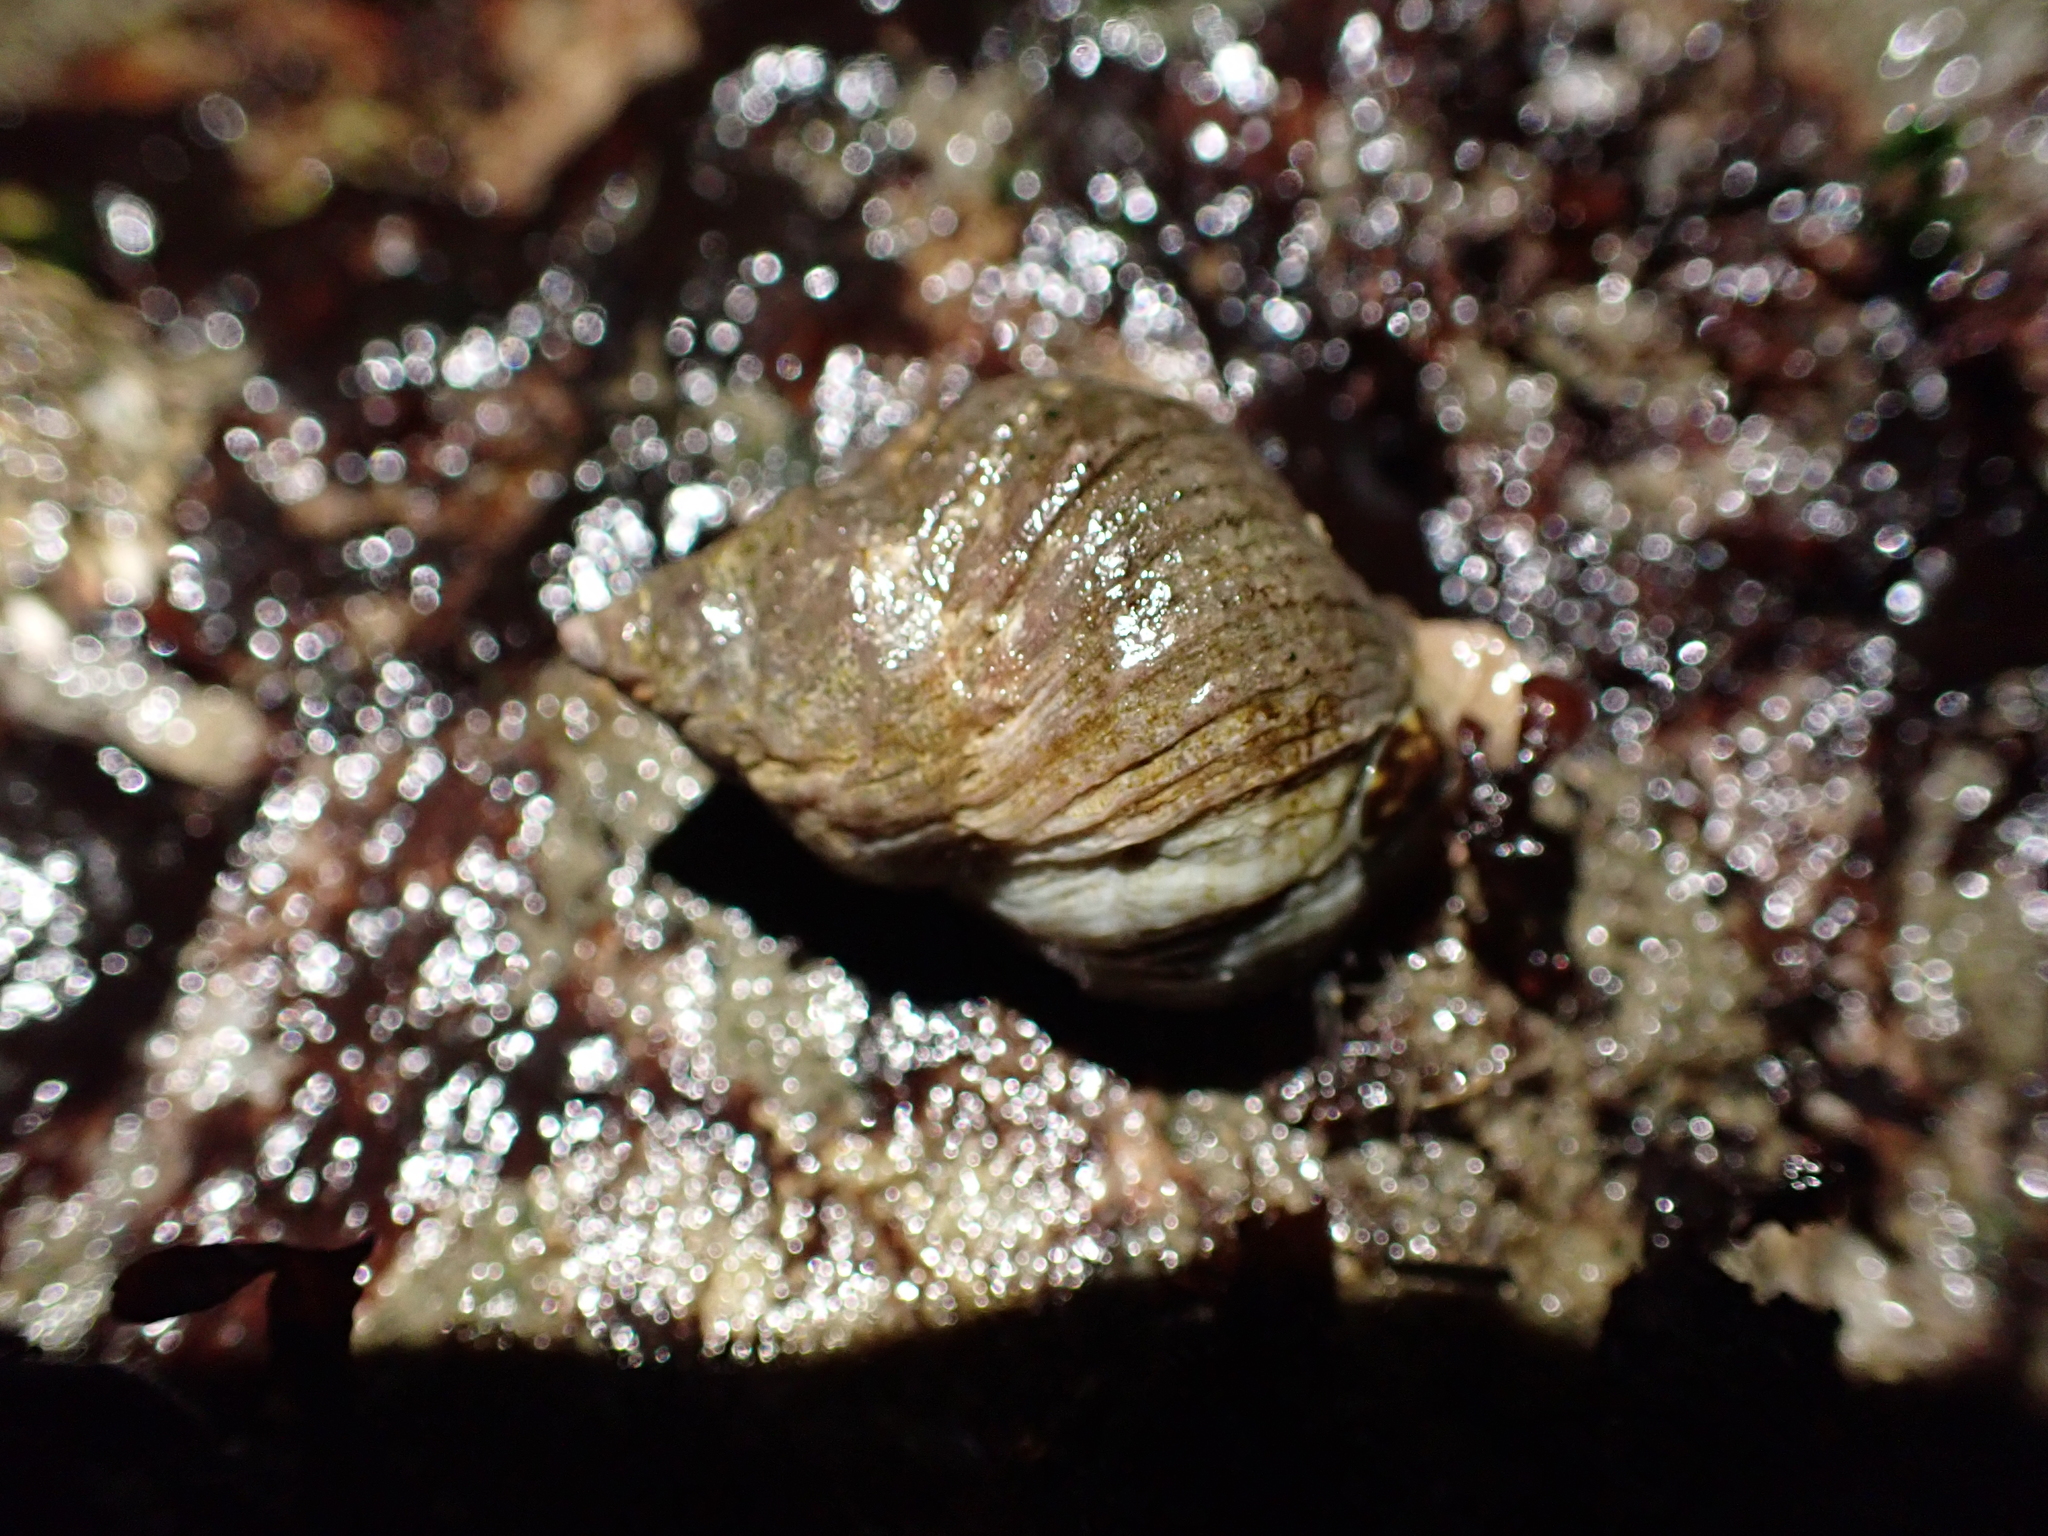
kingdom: Animalia
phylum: Mollusca
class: Gastropoda
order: Neogastropoda
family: Muricidae
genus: Nucella
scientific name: Nucella lamellosa
